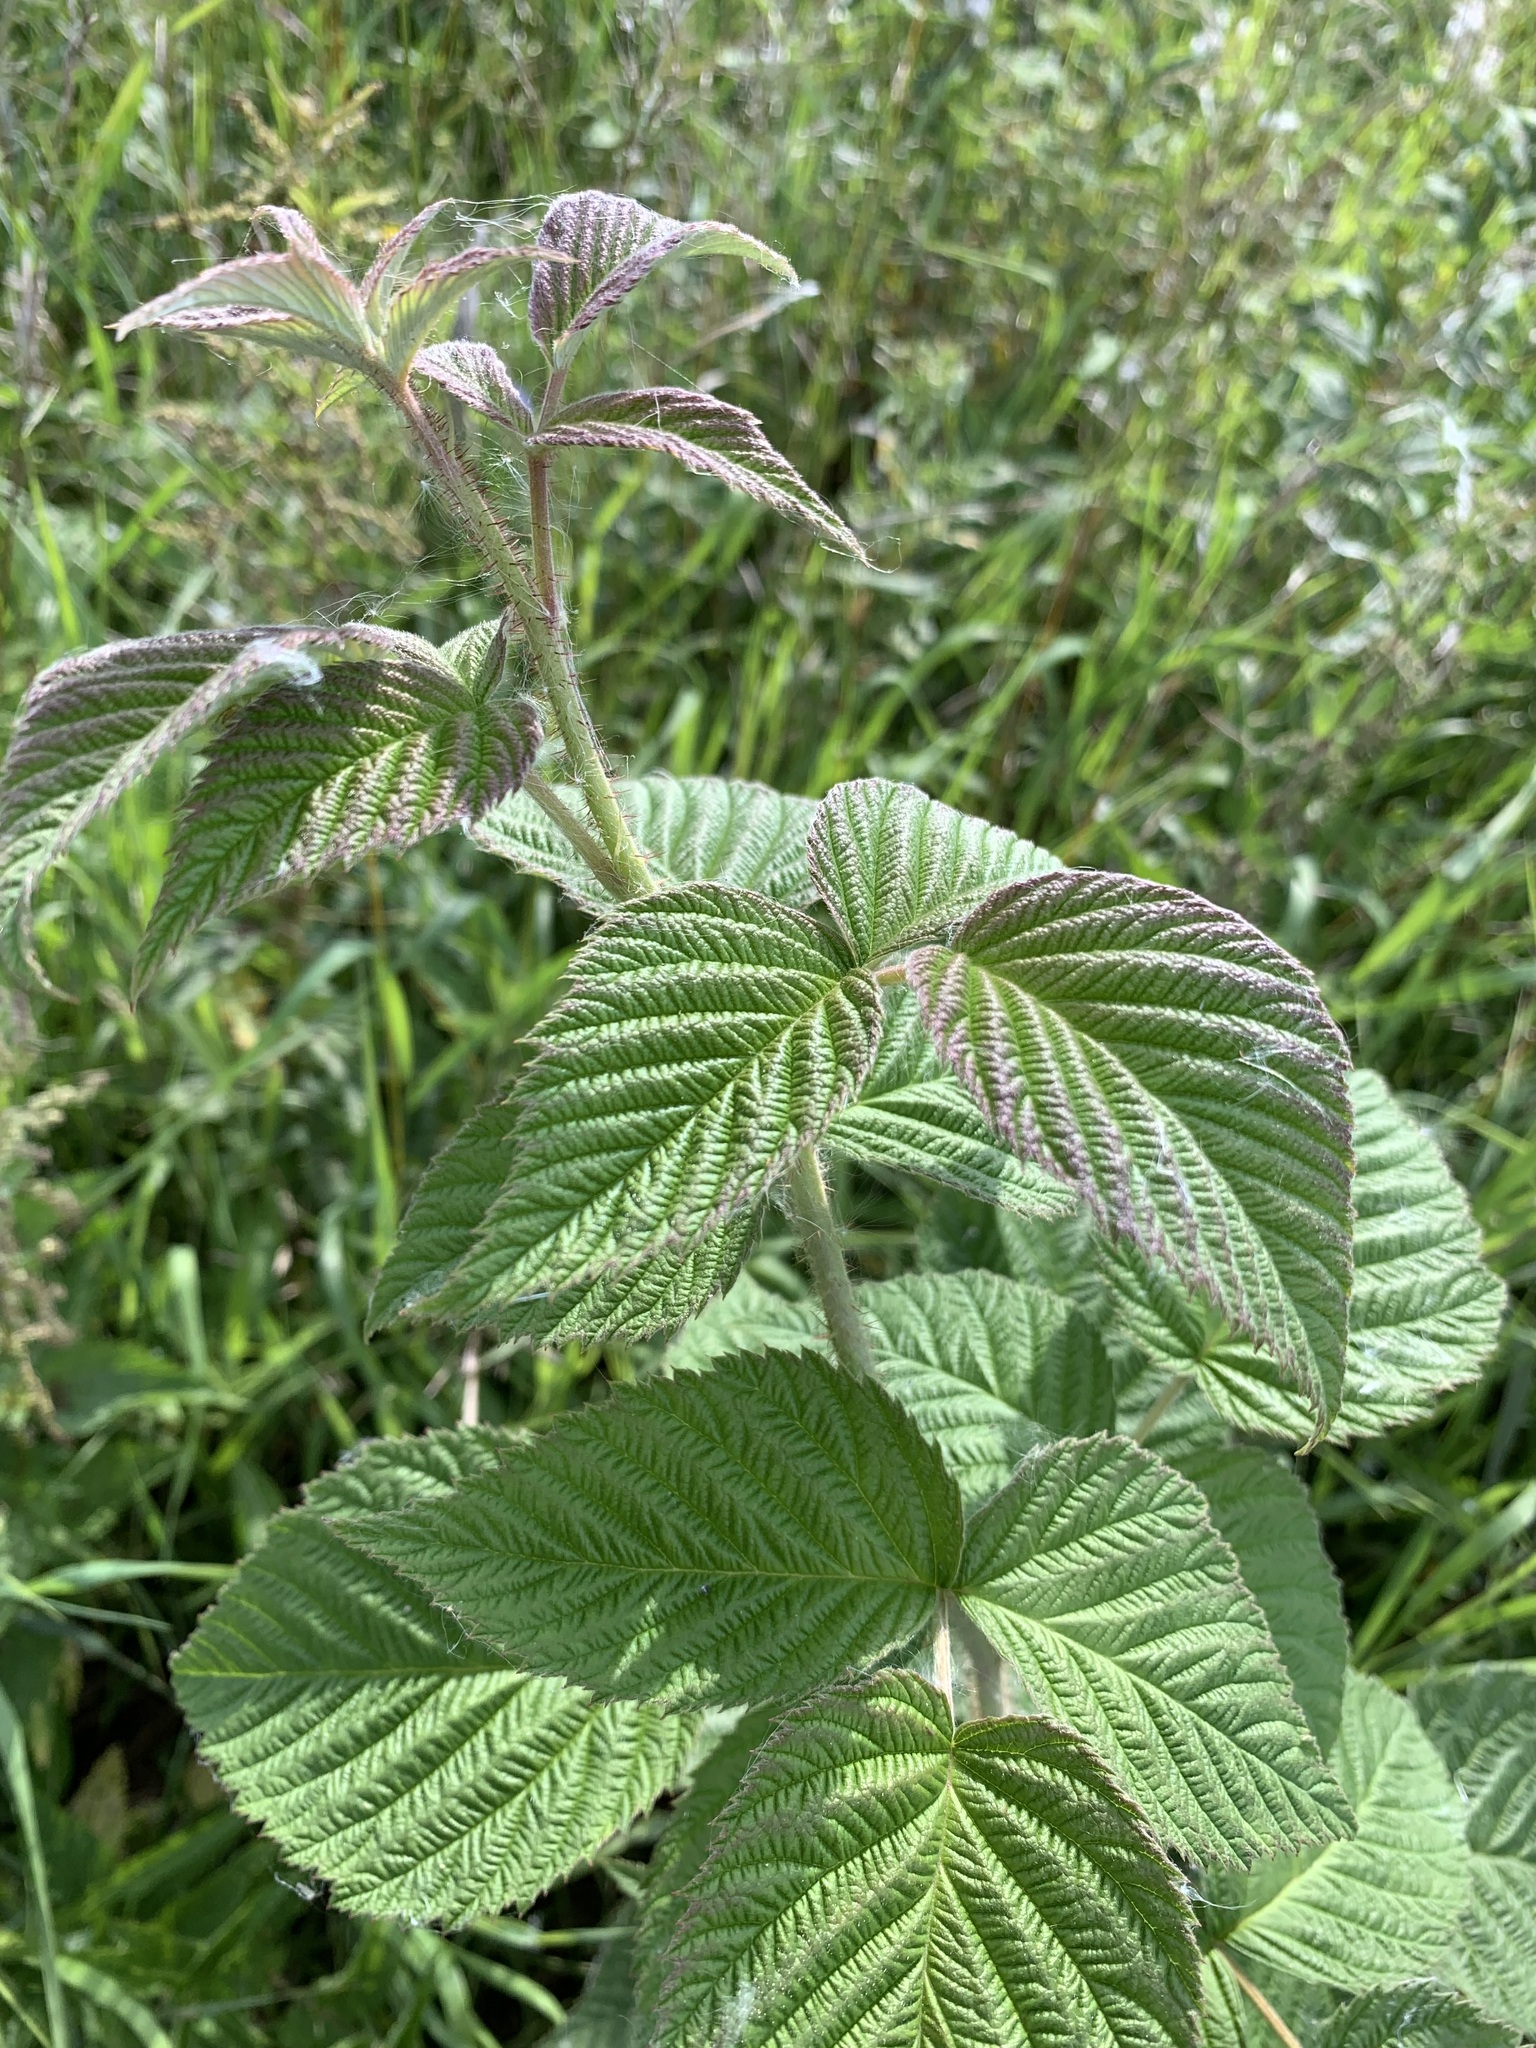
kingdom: Plantae
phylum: Tracheophyta
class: Magnoliopsida
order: Rosales
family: Rosaceae
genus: Rubus
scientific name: Rubus idaeus
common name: Raspberry
